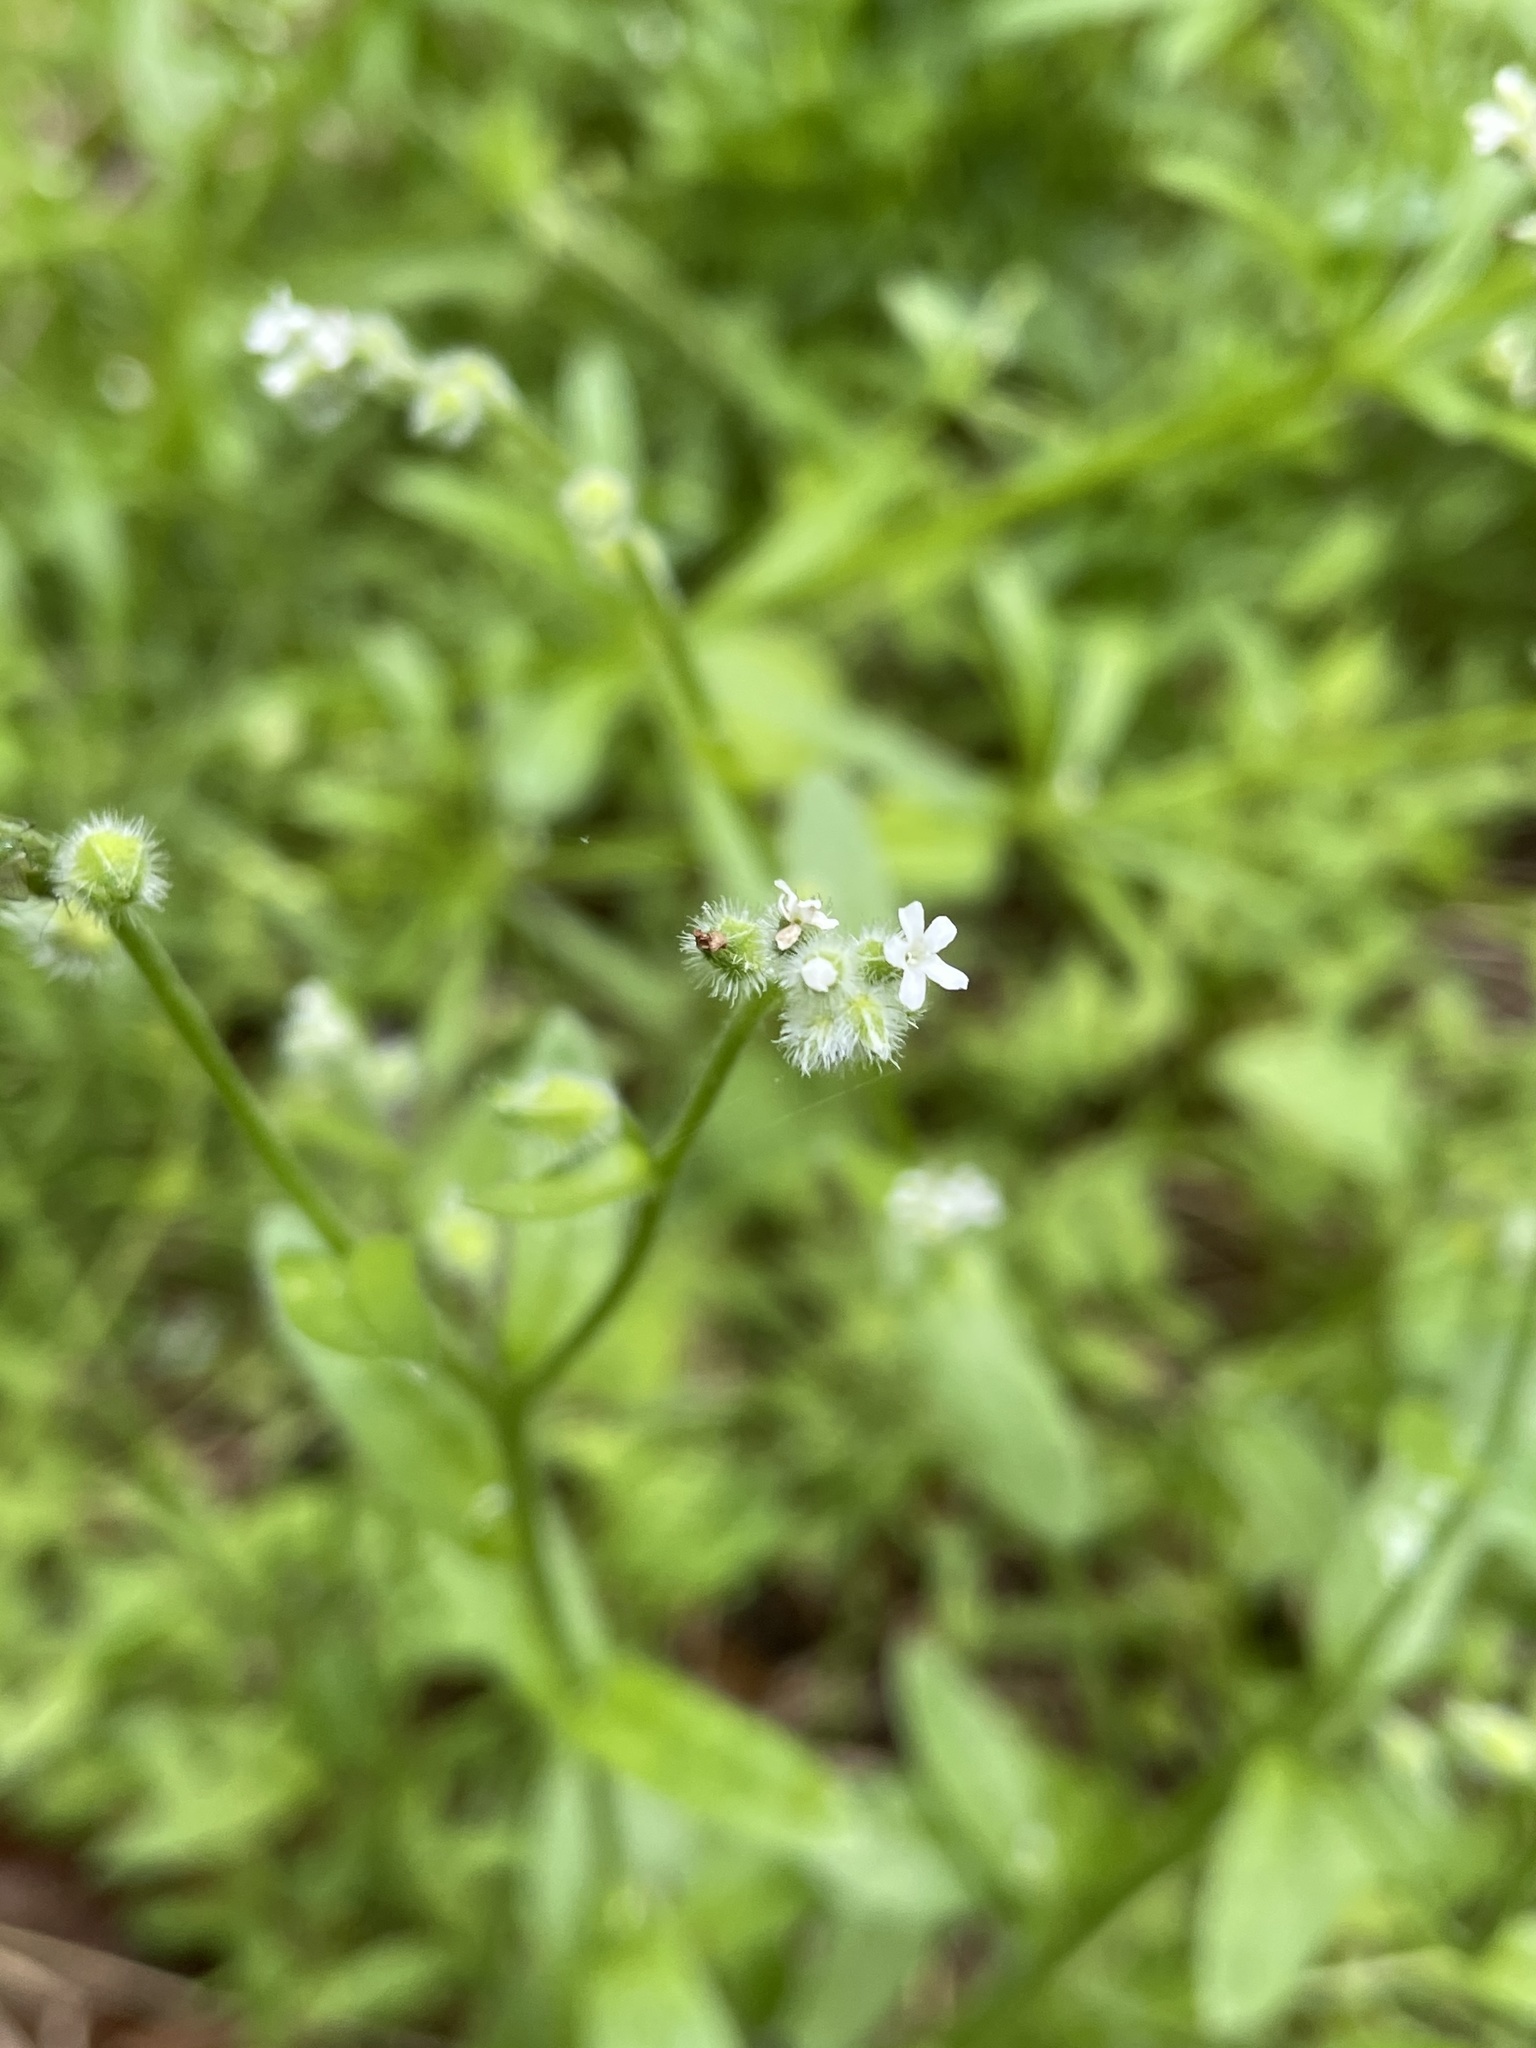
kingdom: Plantae
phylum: Tracheophyta
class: Magnoliopsida
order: Boraginales
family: Boraginaceae
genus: Myosotis
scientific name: Myosotis macrosperma
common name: Large-seed forget-me-not
